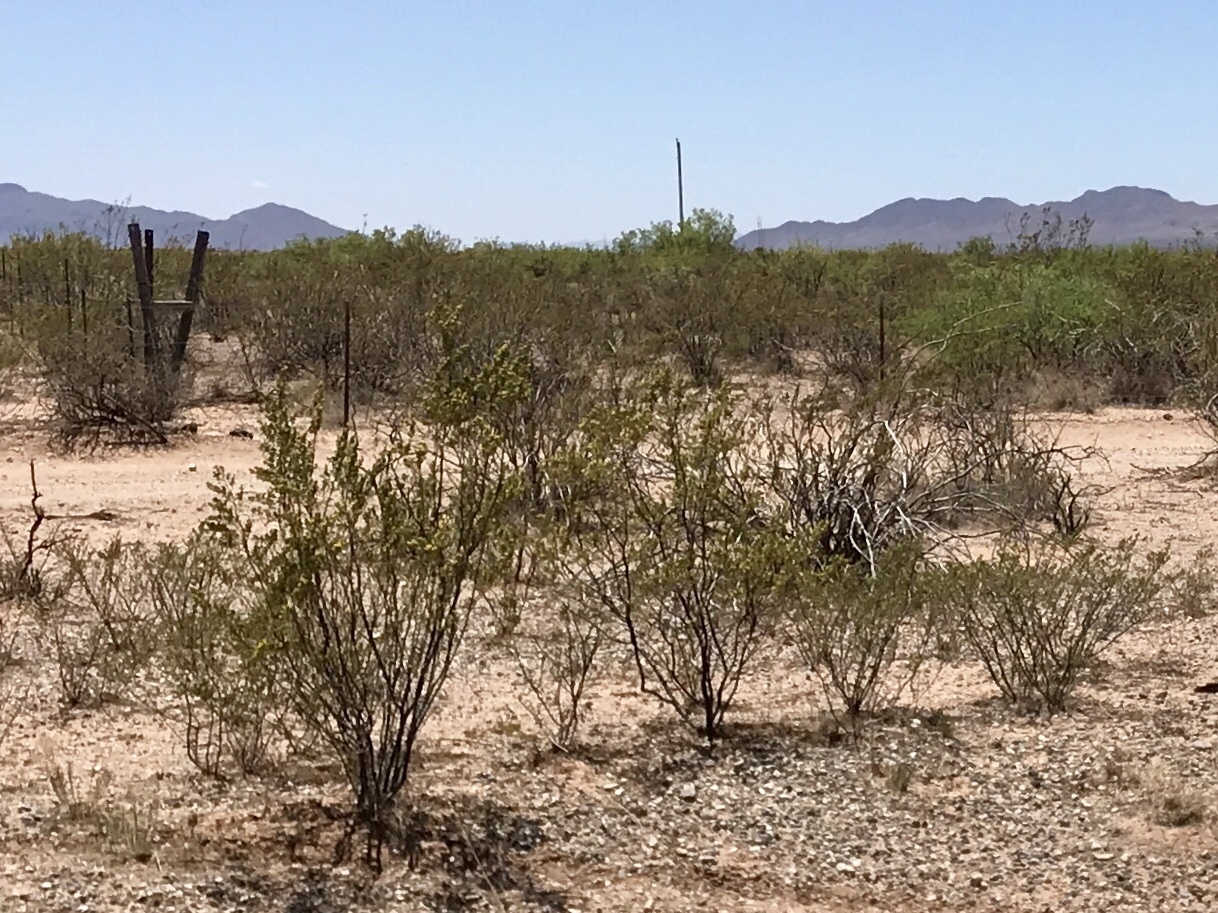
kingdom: Plantae
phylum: Tracheophyta
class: Magnoliopsida
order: Zygophyllales
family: Zygophyllaceae
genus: Larrea
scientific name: Larrea tridentata
